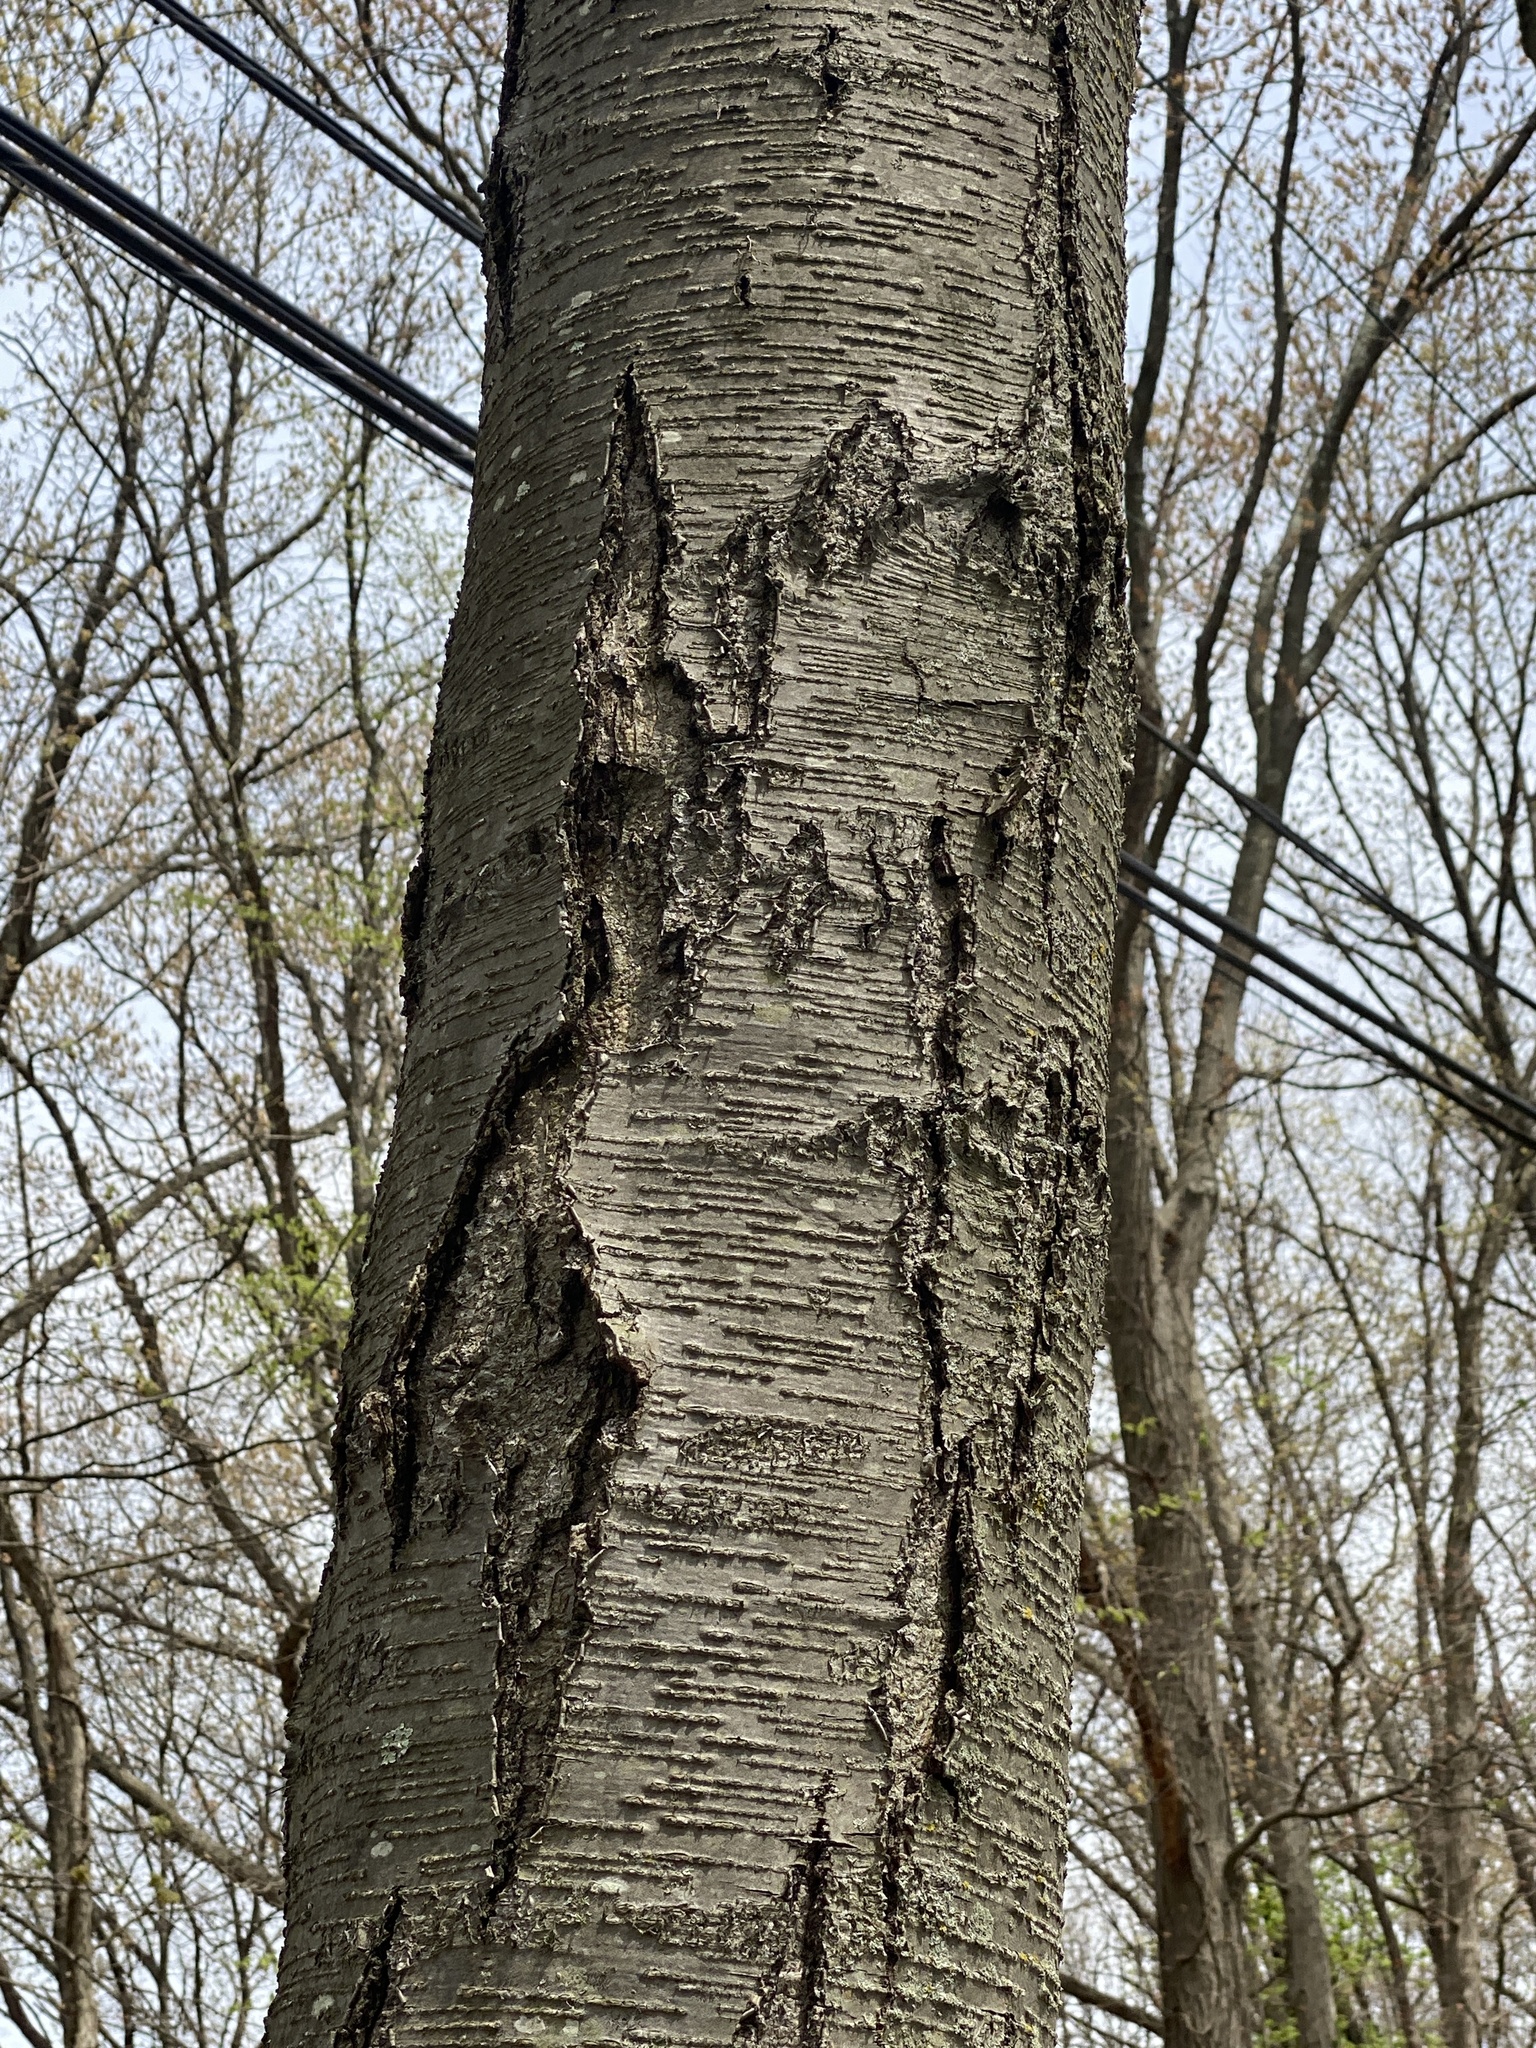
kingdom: Plantae
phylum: Tracheophyta
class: Magnoliopsida
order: Fagales
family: Betulaceae
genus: Betula
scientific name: Betula lenta
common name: Black birch
